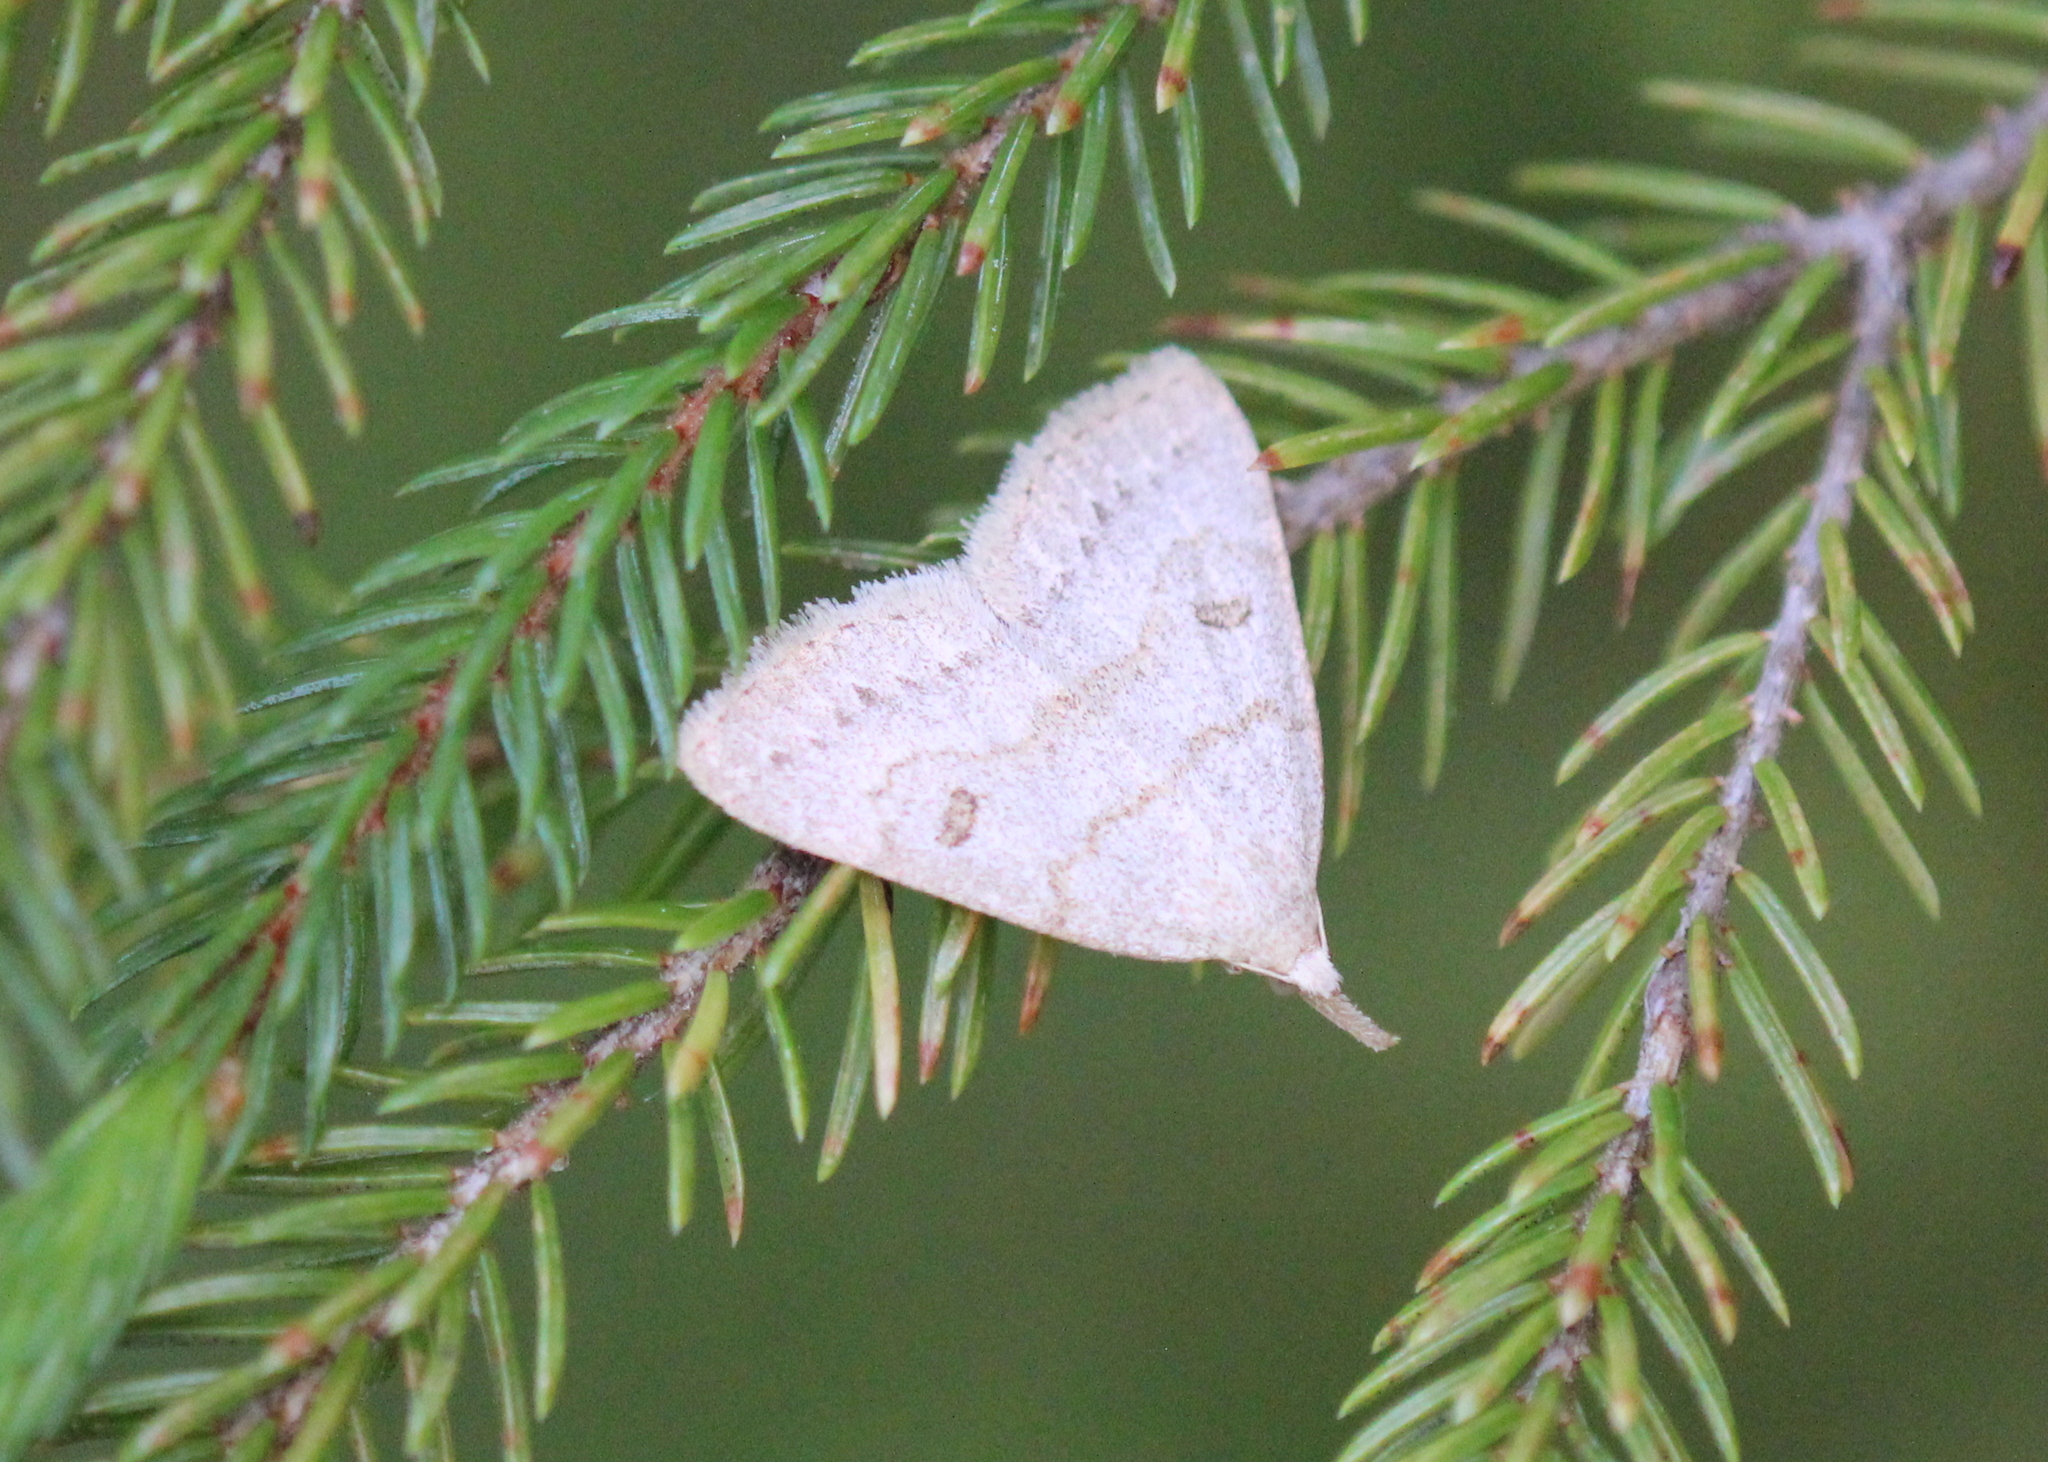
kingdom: Animalia
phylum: Arthropoda
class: Insecta
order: Lepidoptera
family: Erebidae
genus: Macrochilo
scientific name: Macrochilo morbidalis
